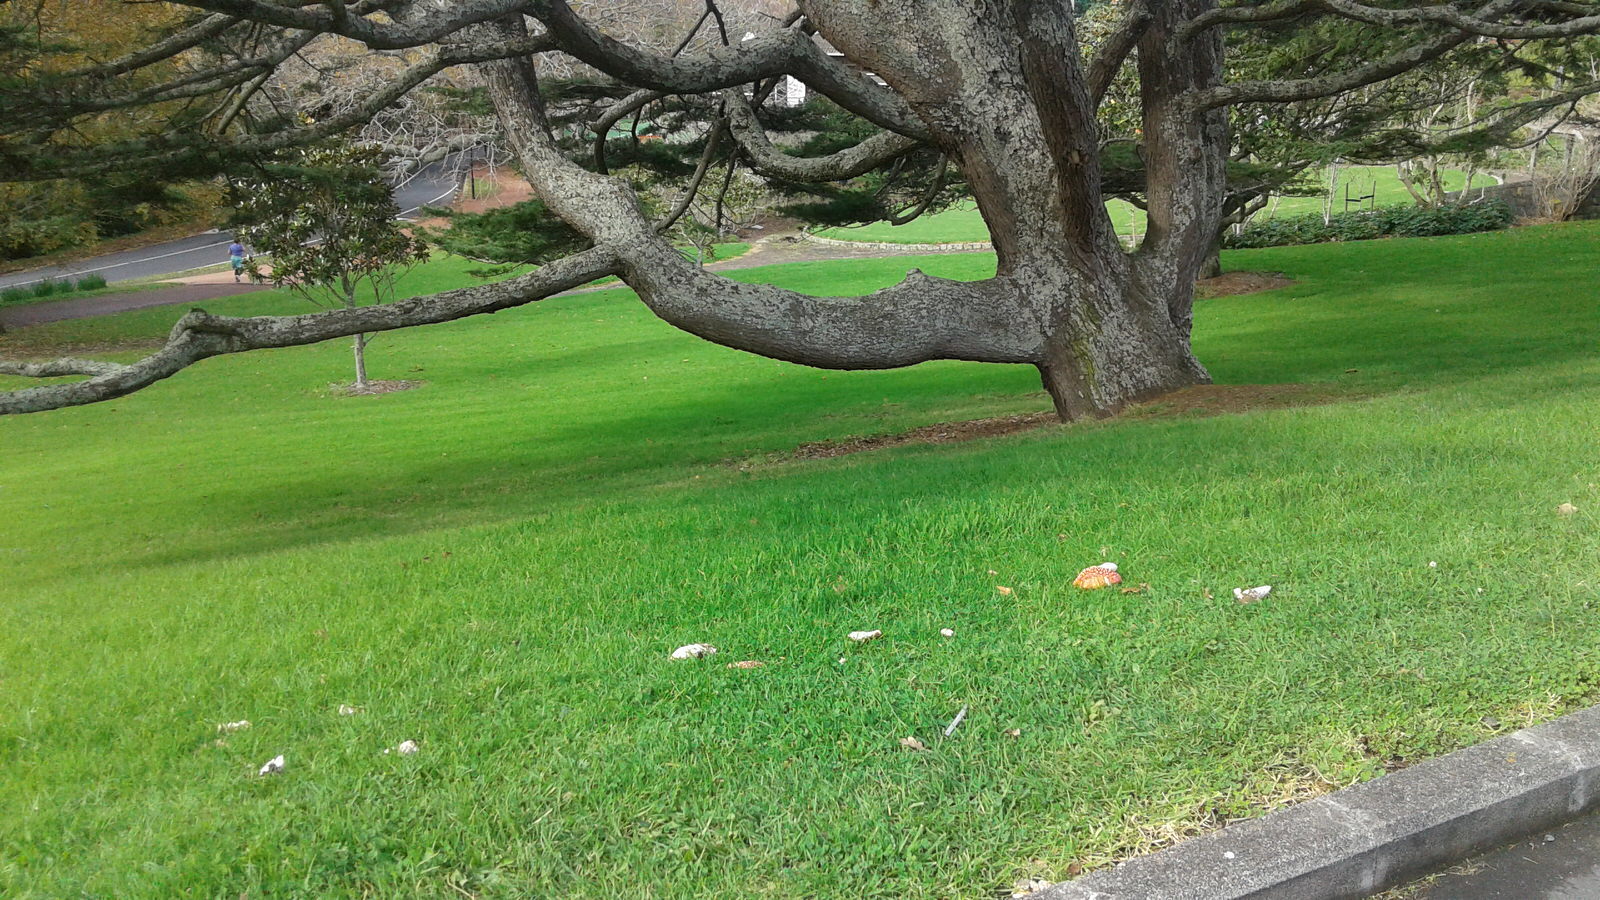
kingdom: Fungi
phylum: Basidiomycota
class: Agaricomycetes
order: Agaricales
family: Amanitaceae
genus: Amanita
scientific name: Amanita muscaria
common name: Fly agaric
